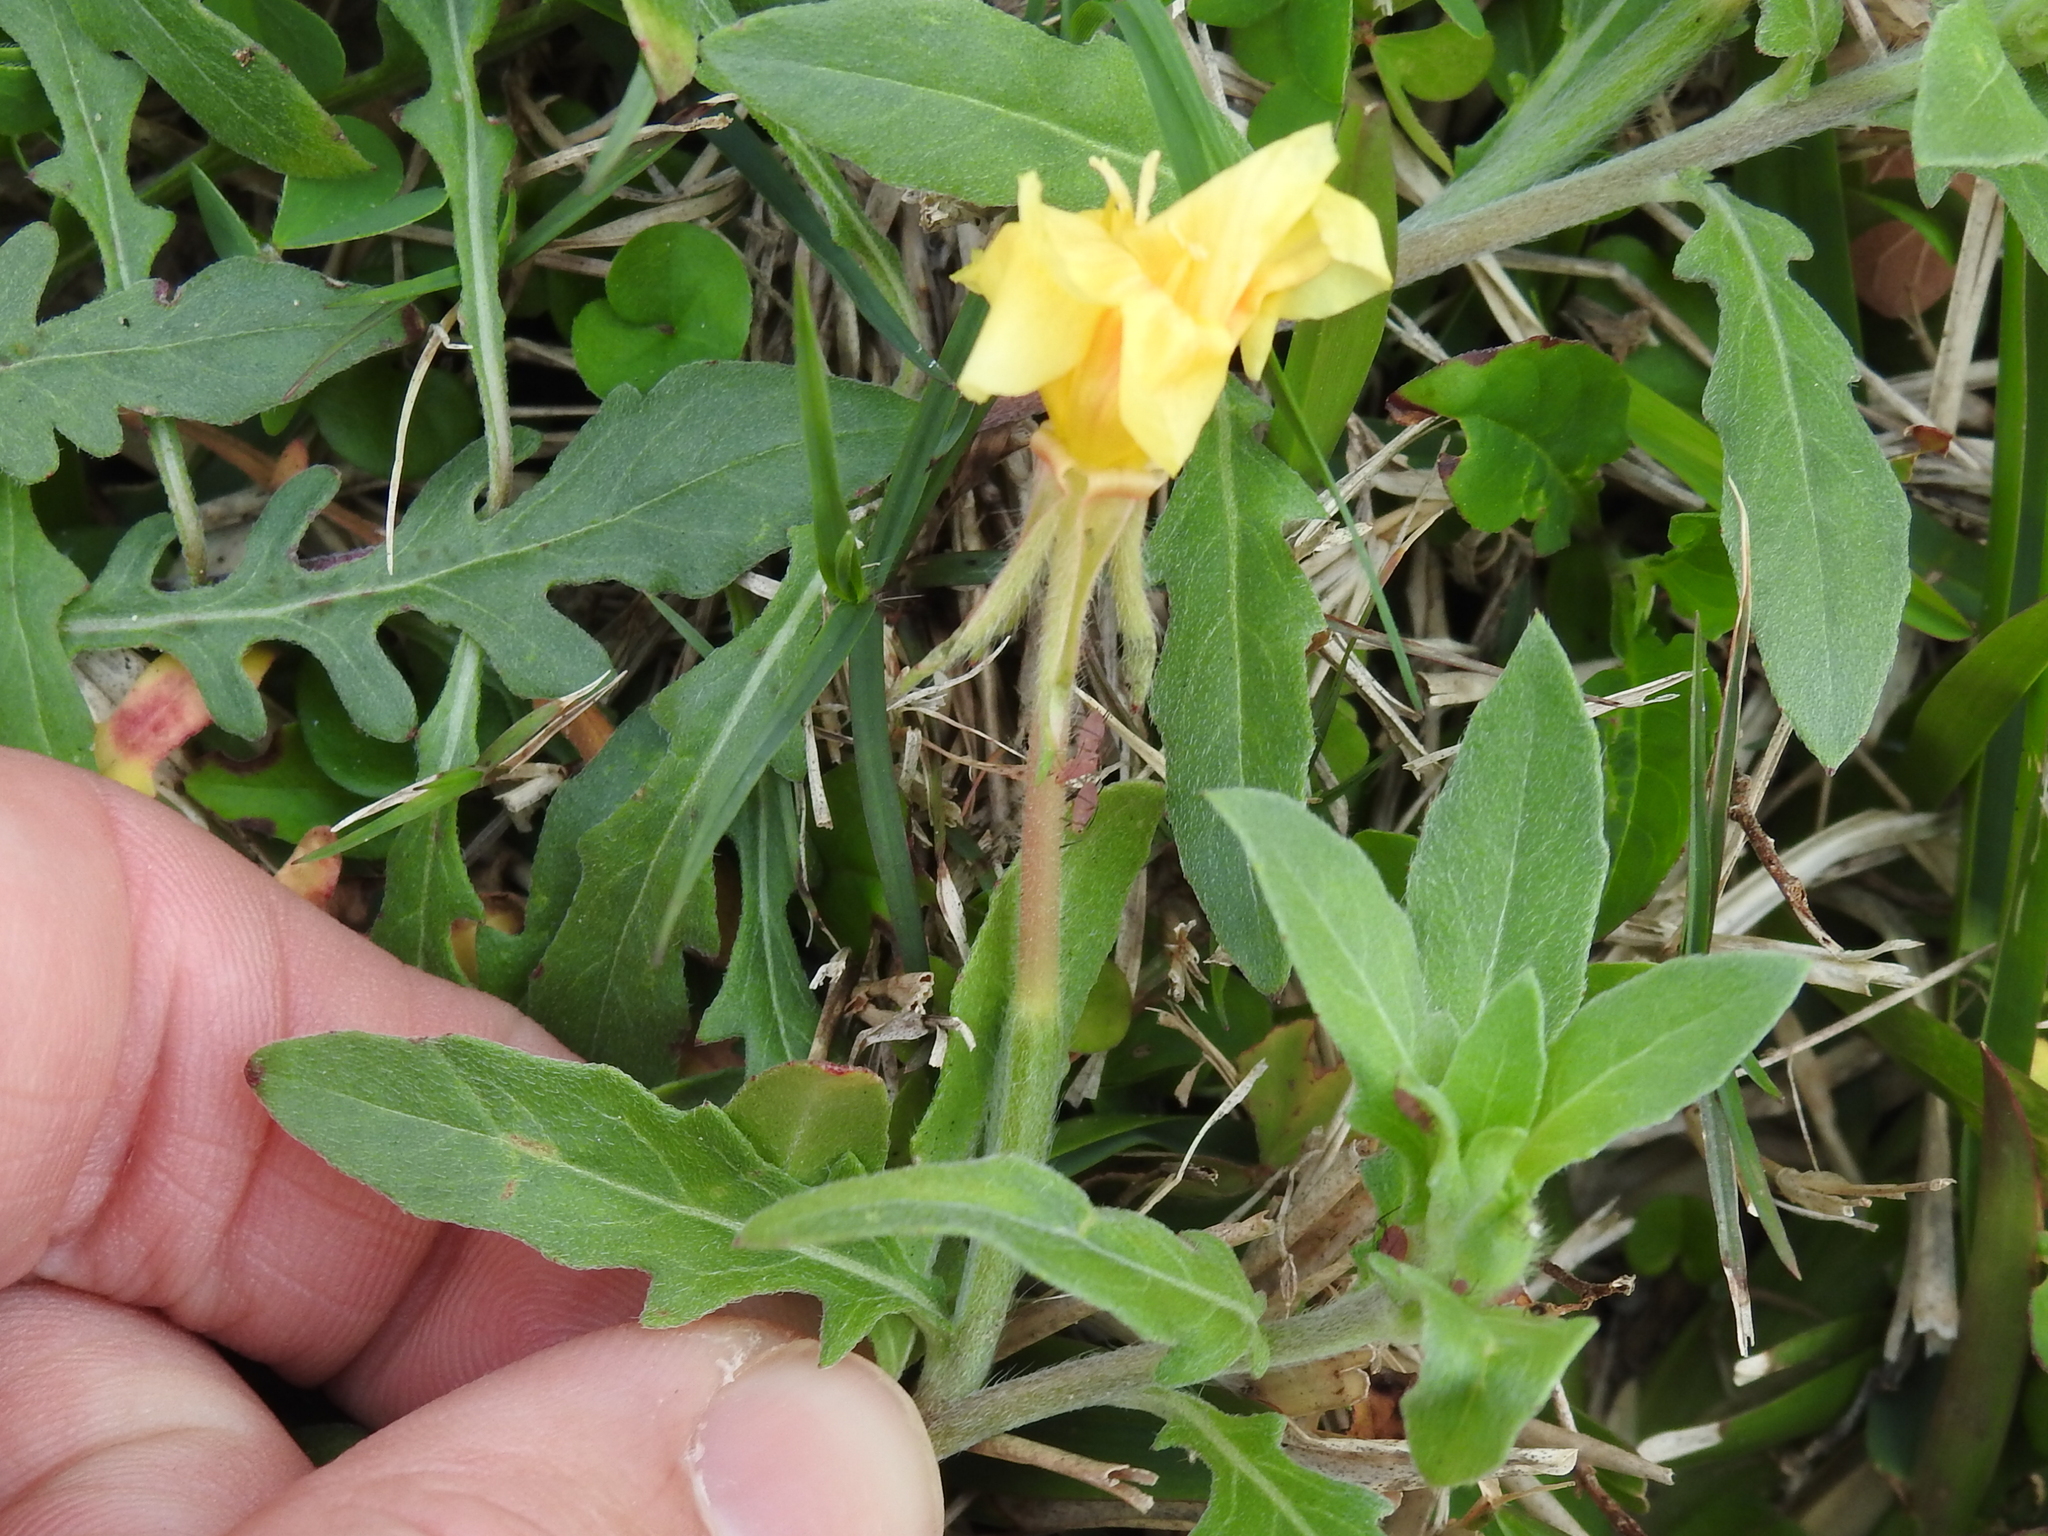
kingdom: Plantae
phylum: Tracheophyta
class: Magnoliopsida
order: Myrtales
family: Onagraceae
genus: Oenothera
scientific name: Oenothera laciniata
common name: Cut-leaved evening-primrose
